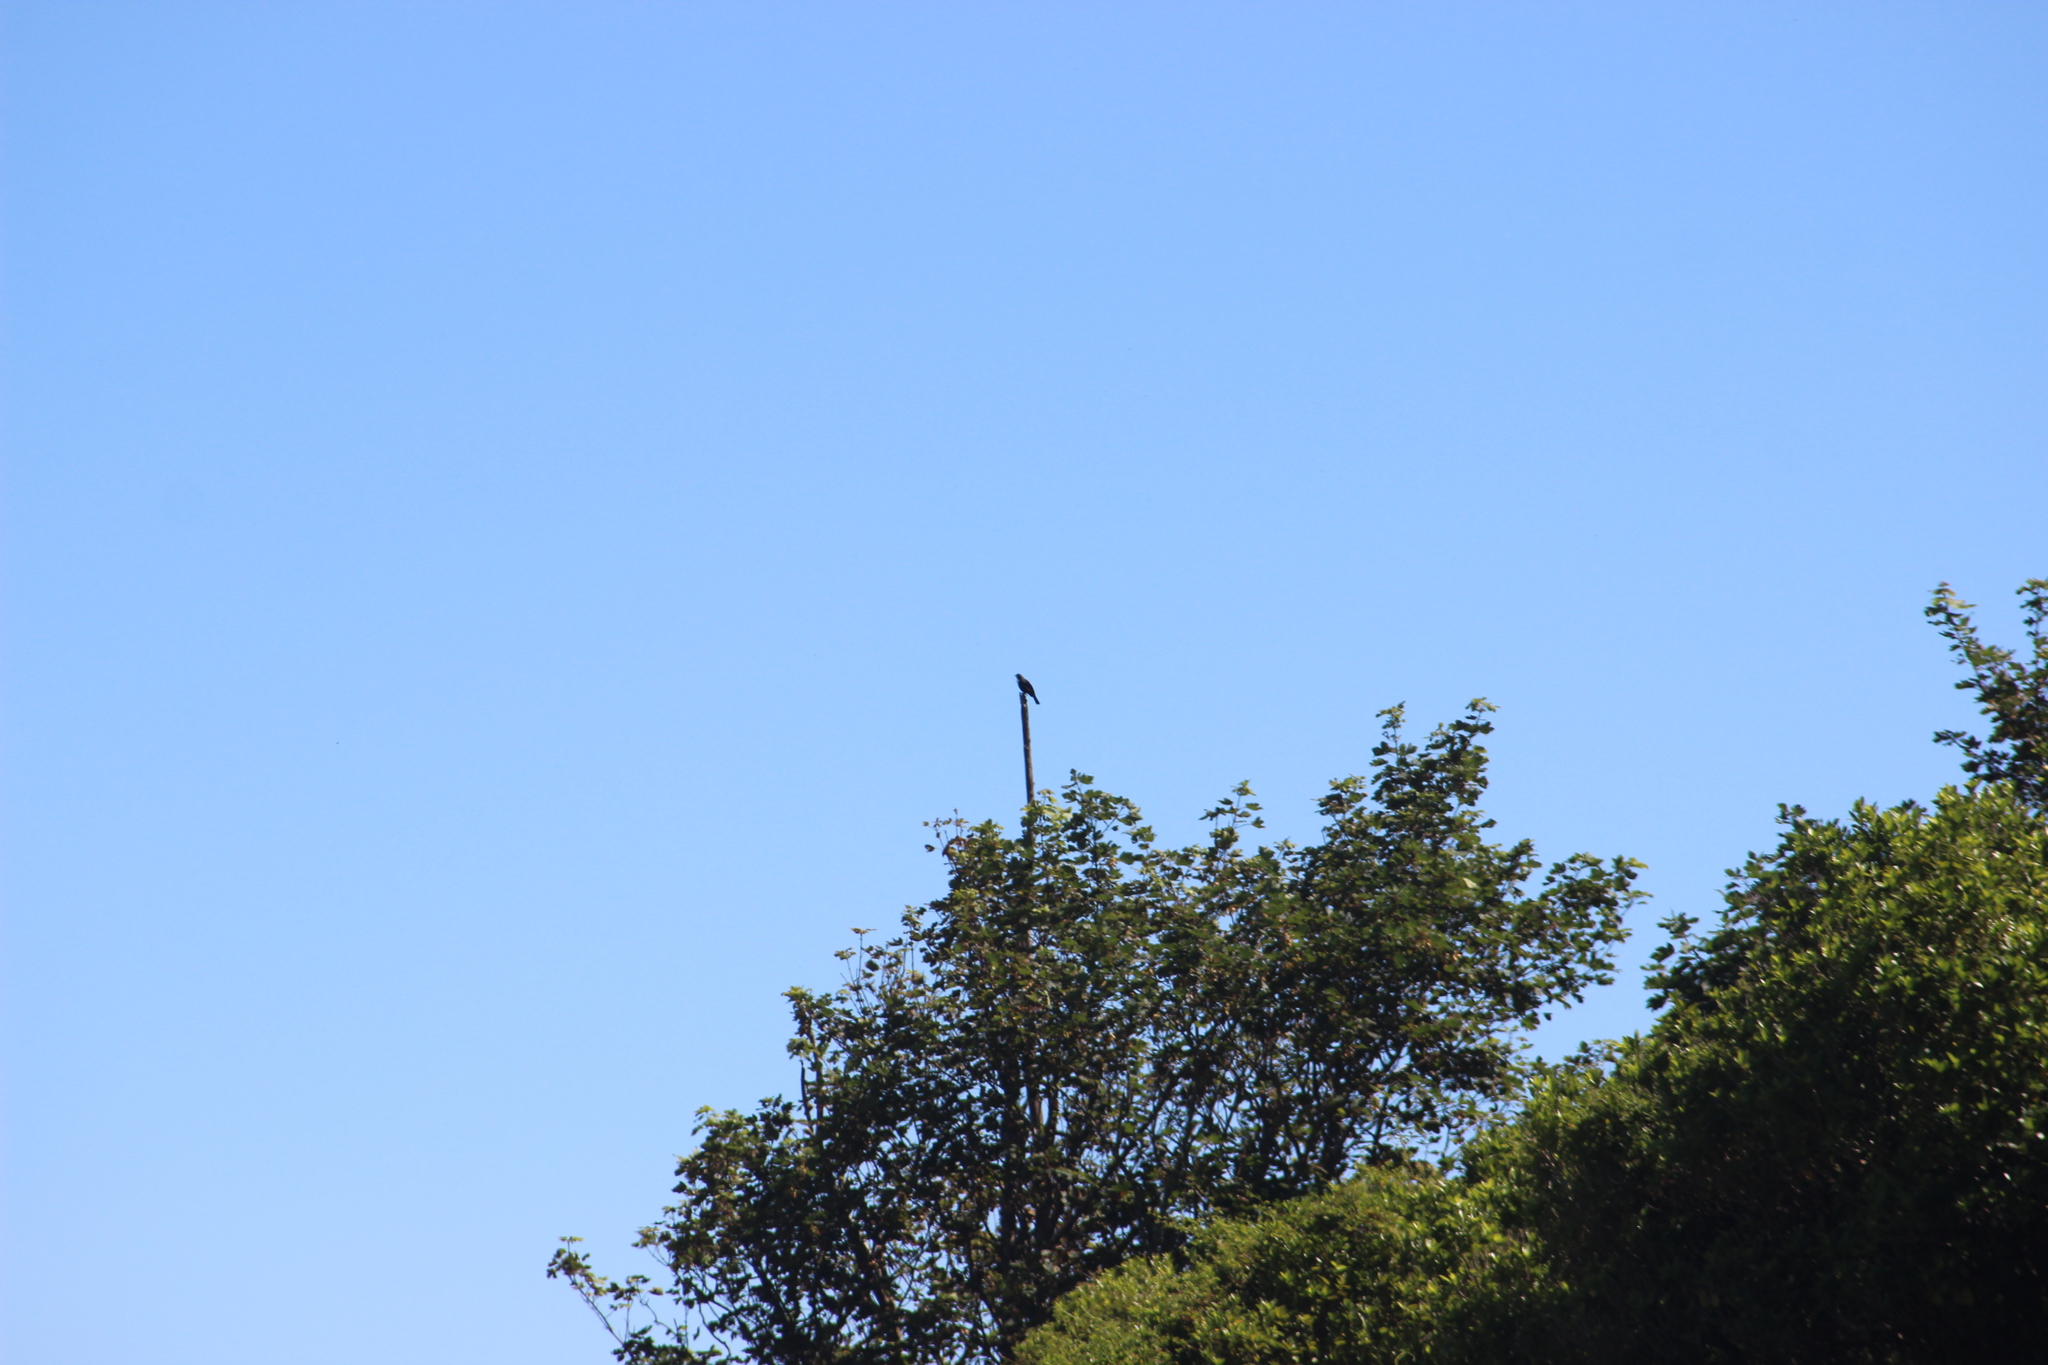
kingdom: Animalia
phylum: Chordata
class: Aves
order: Passeriformes
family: Meliphagidae
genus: Prosthemadera
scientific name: Prosthemadera novaeseelandiae
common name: Tui
